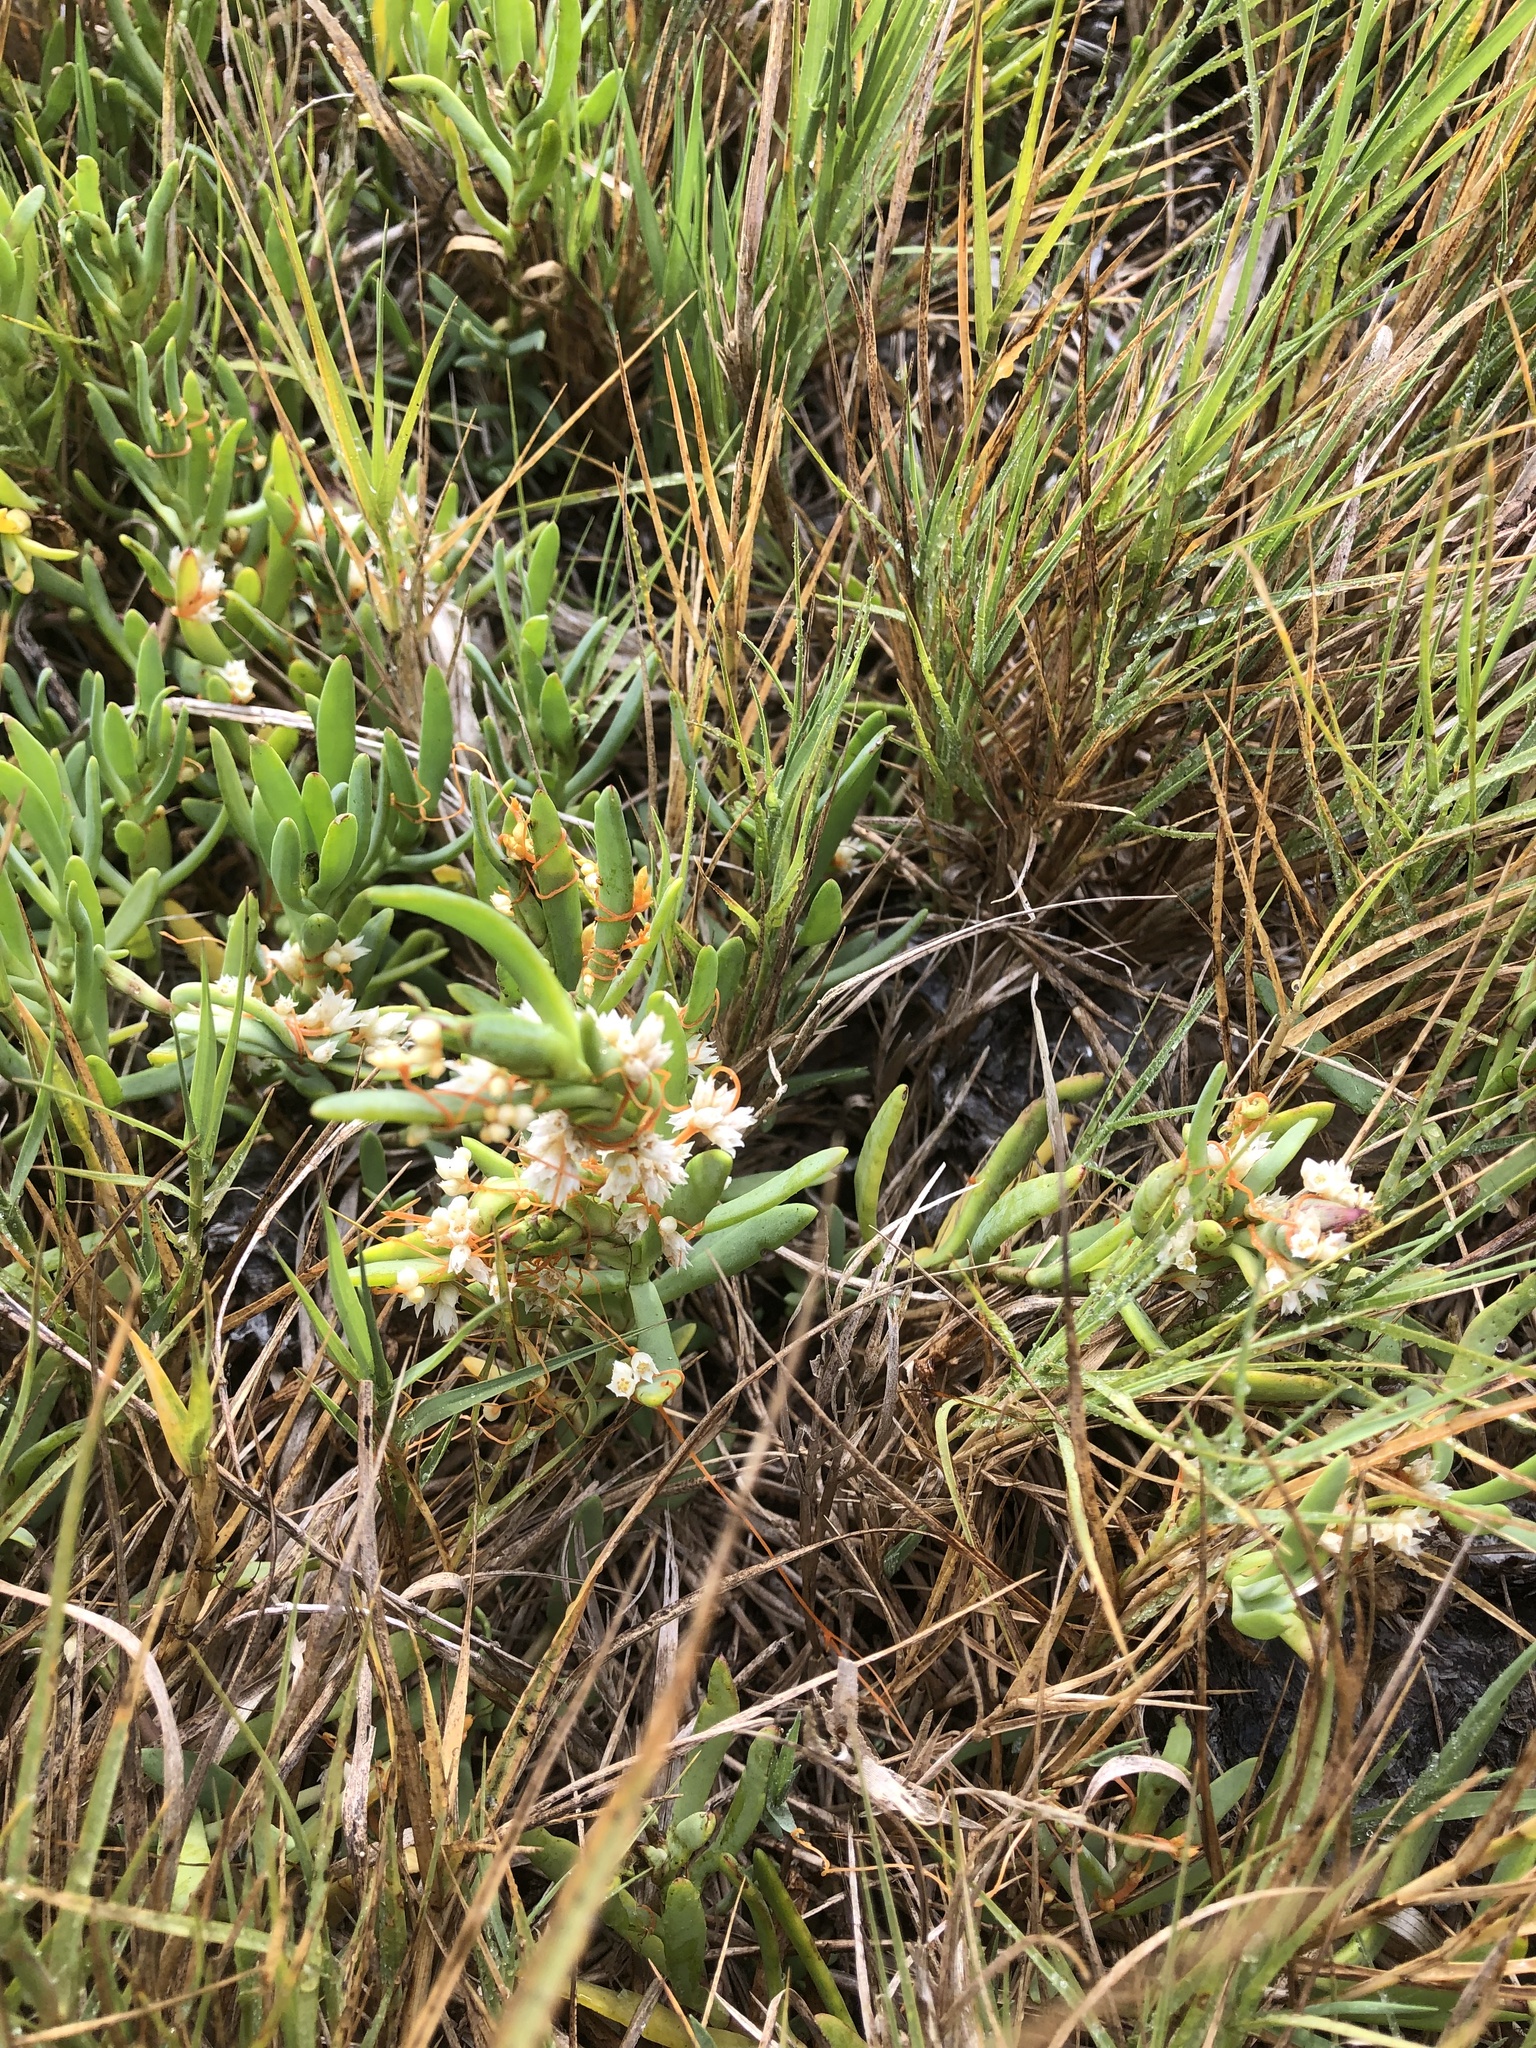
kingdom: Plantae
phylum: Tracheophyta
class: Magnoliopsida
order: Solanales
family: Convolvulaceae
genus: Cuscuta
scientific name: Cuscuta pacifica
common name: Large saltmarsh dodder
